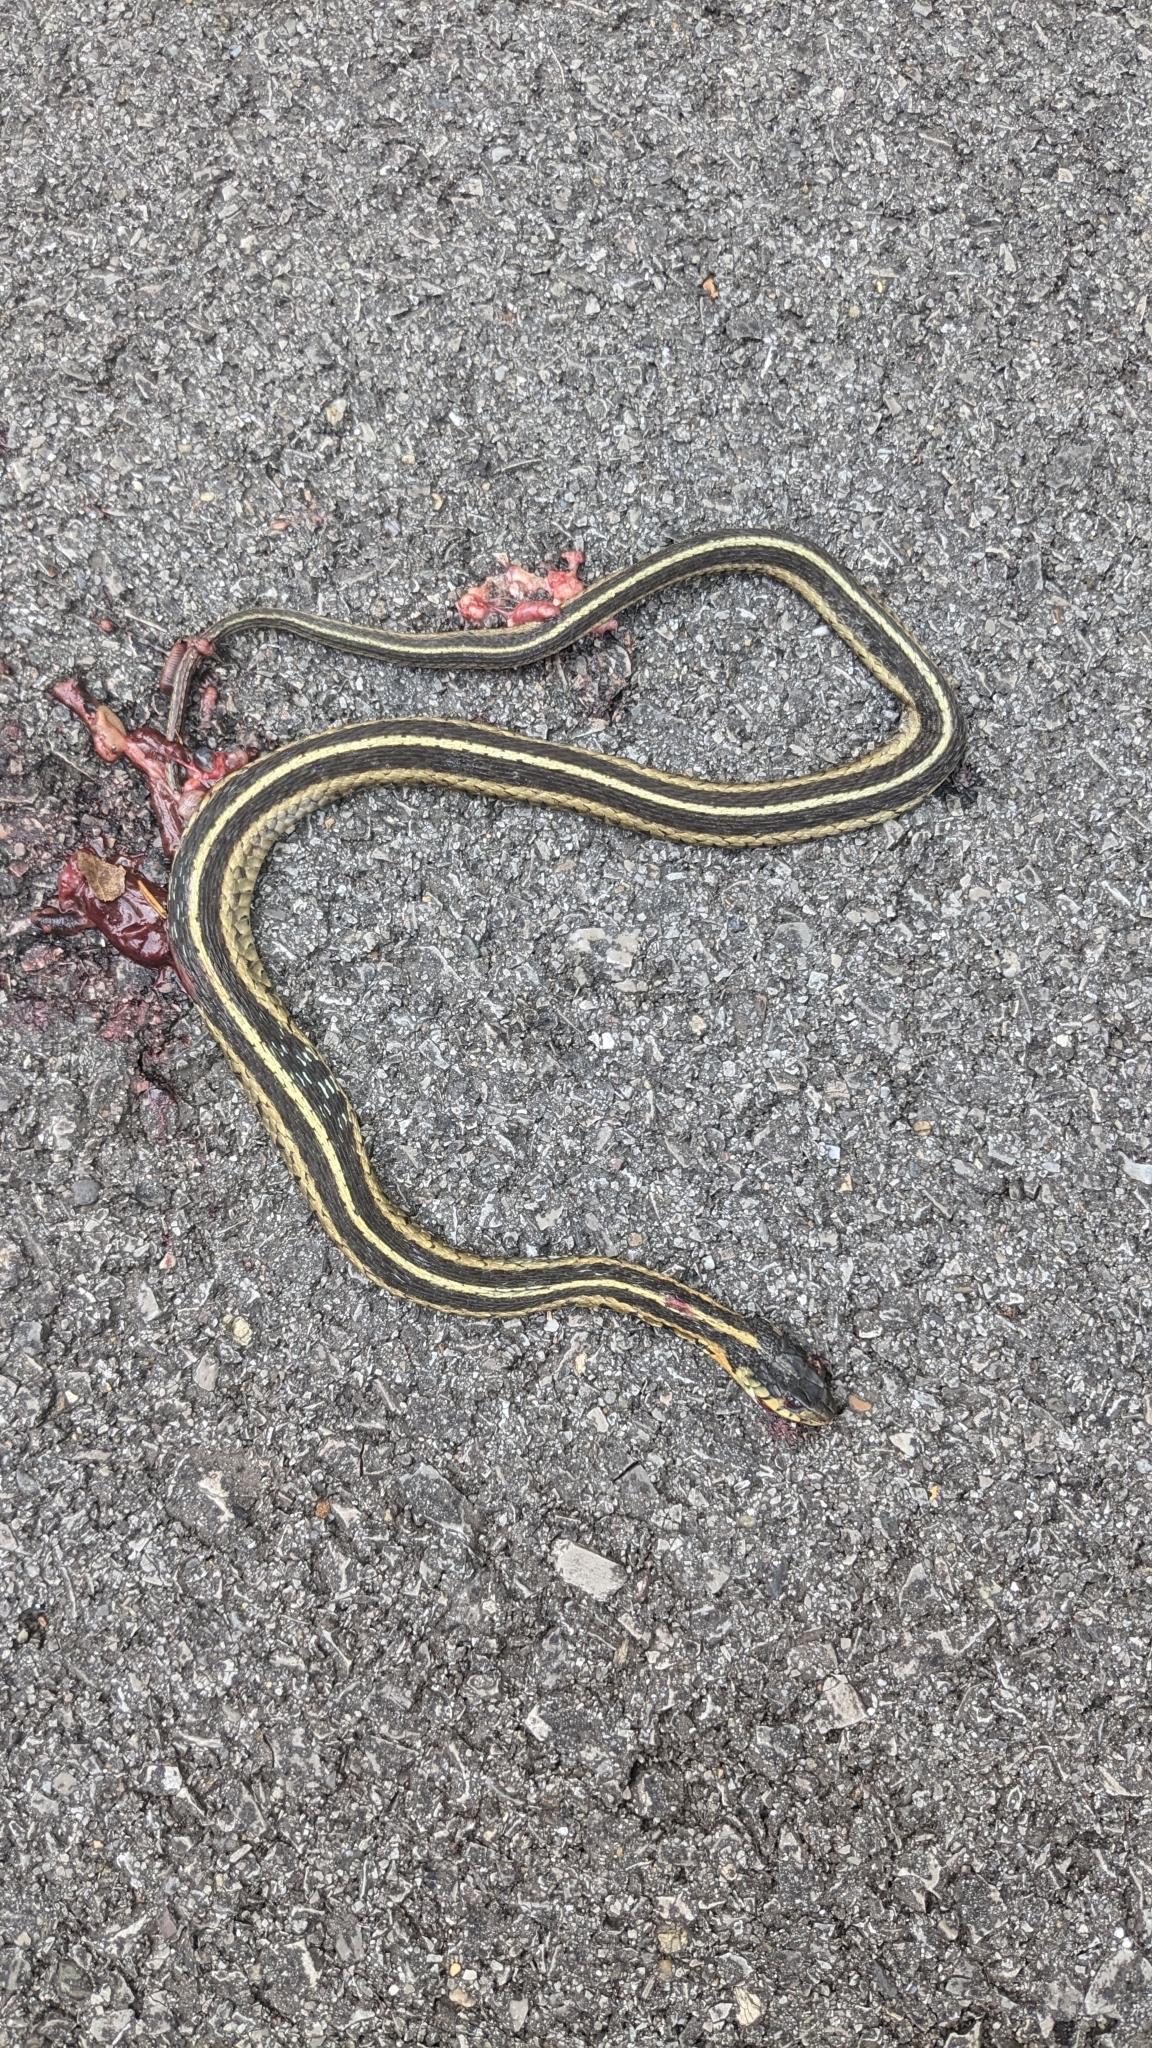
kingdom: Animalia
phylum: Chordata
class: Squamata
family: Colubridae
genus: Thamnophis
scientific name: Thamnophis sirtalis
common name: Common garter snake
